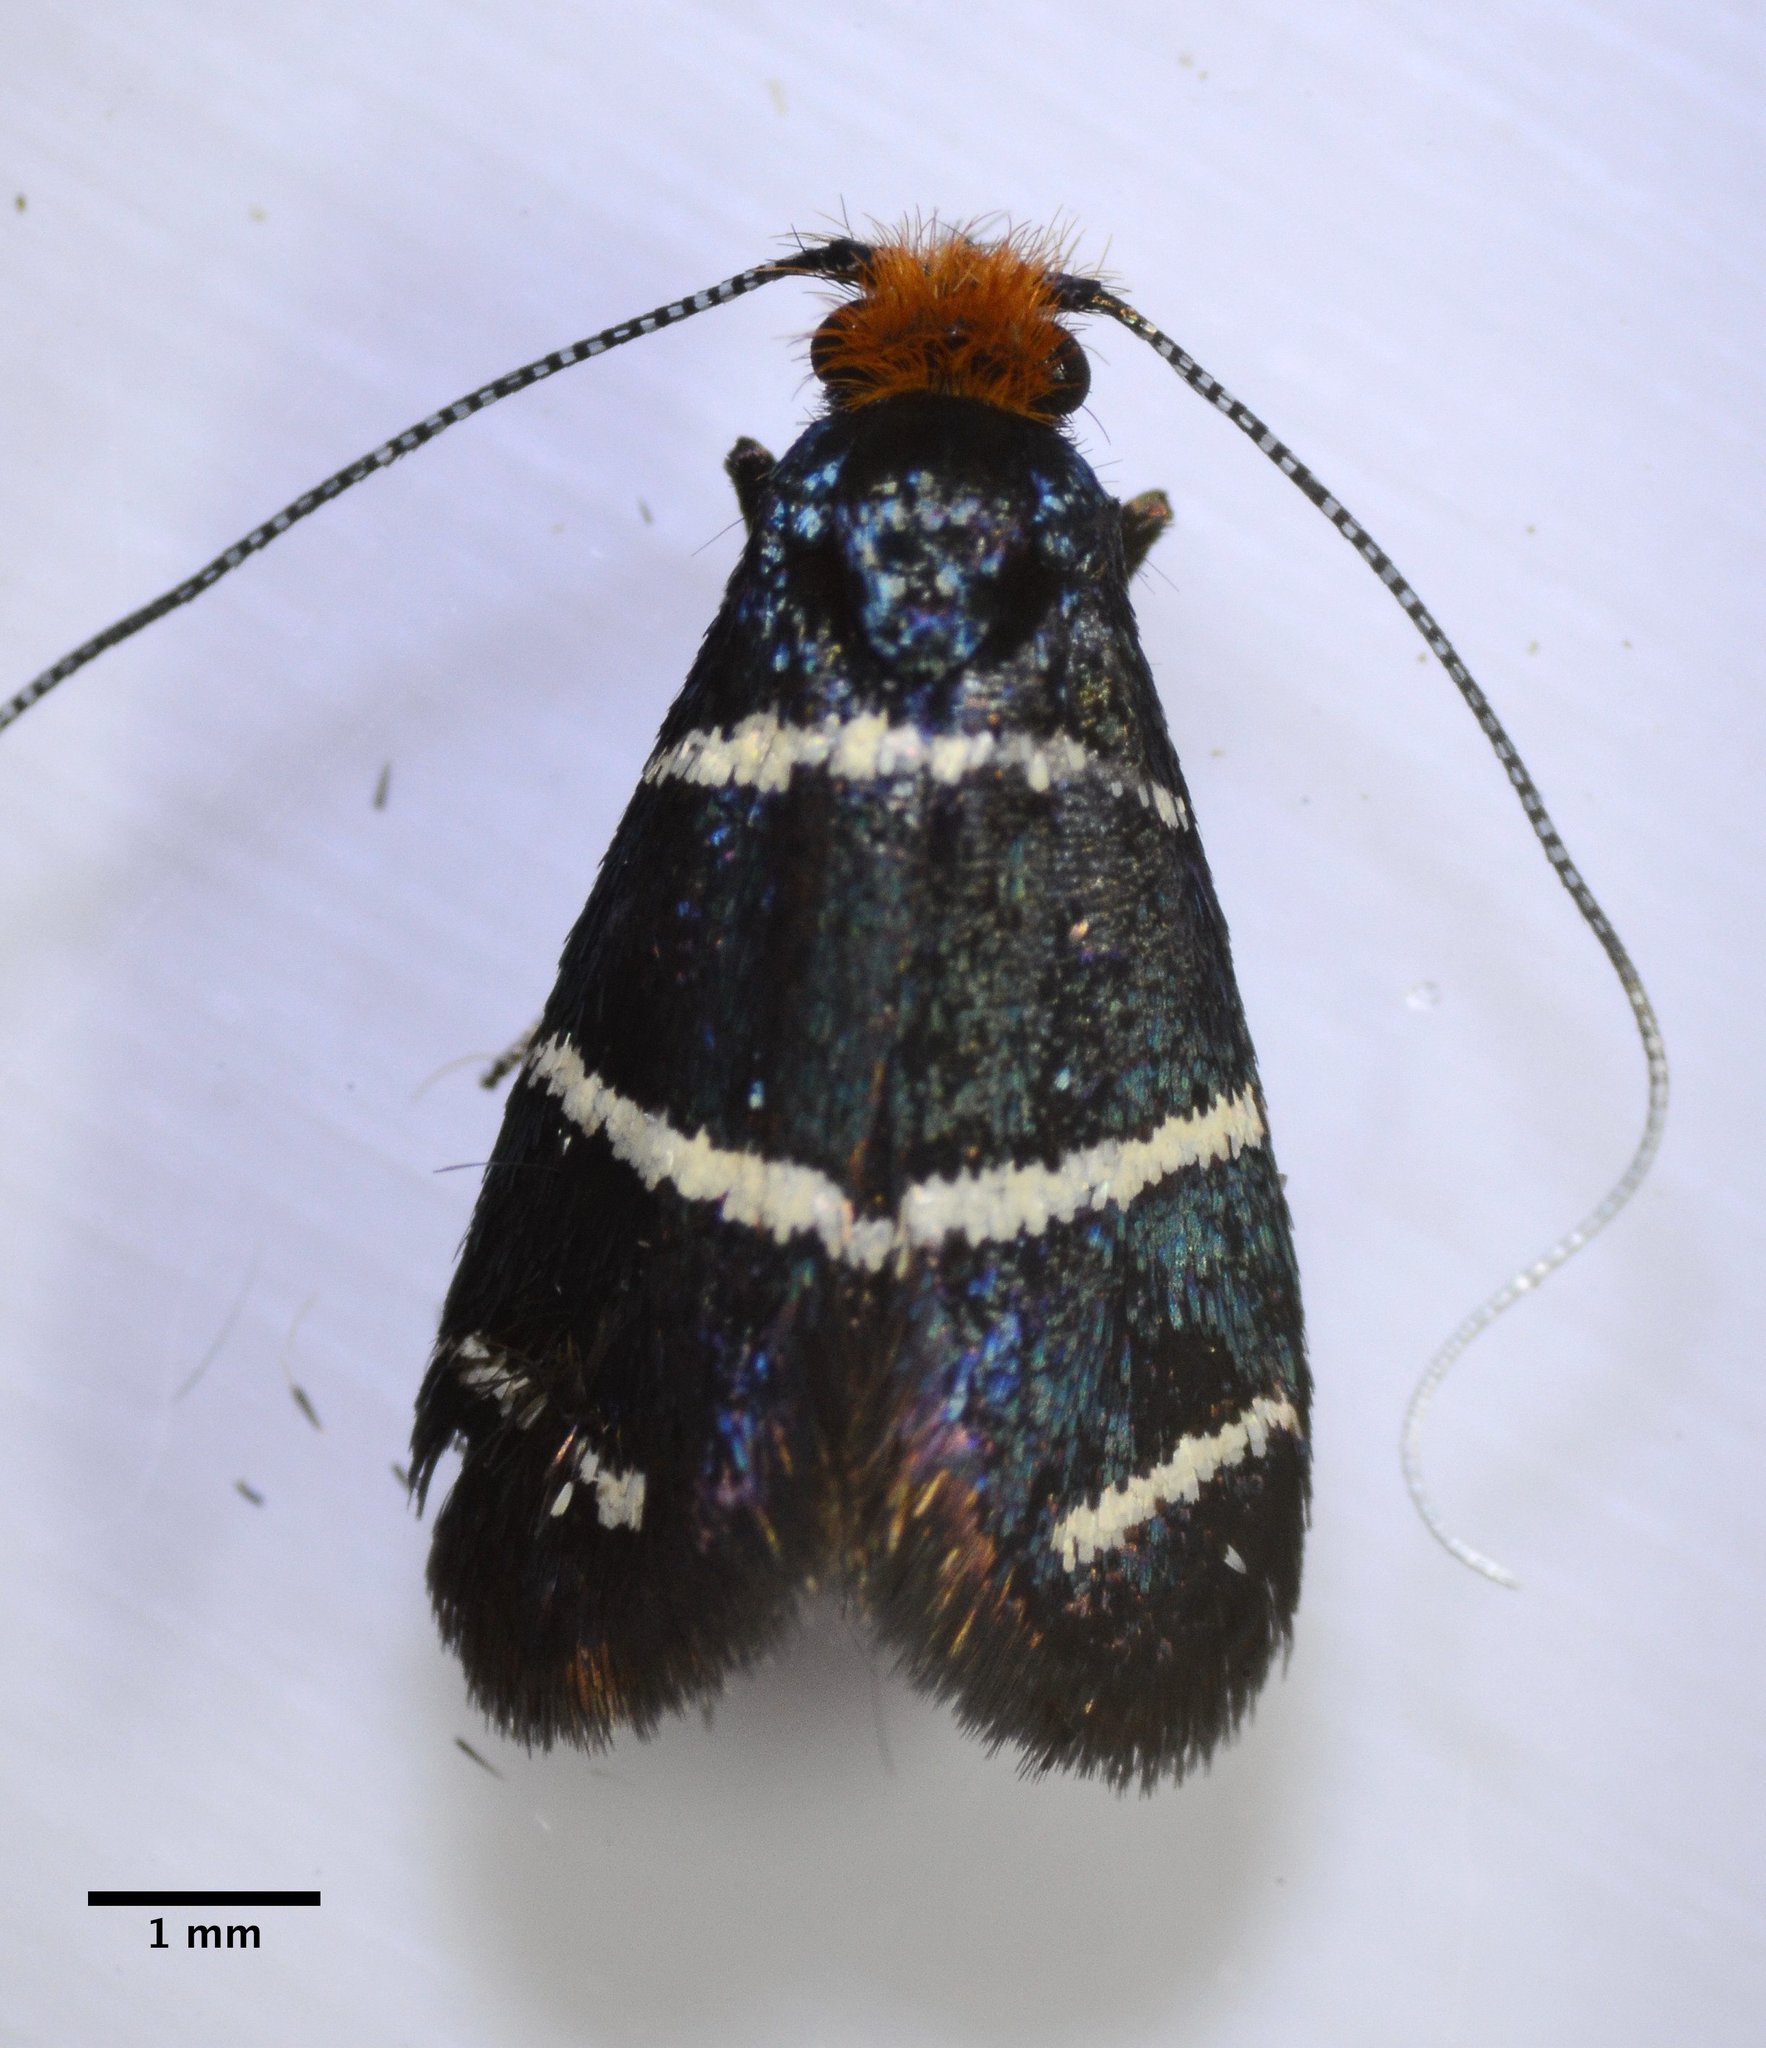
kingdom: Animalia
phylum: Arthropoda
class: Insecta
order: Lepidoptera
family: Adelidae
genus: Adela
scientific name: Adela trigrapha
